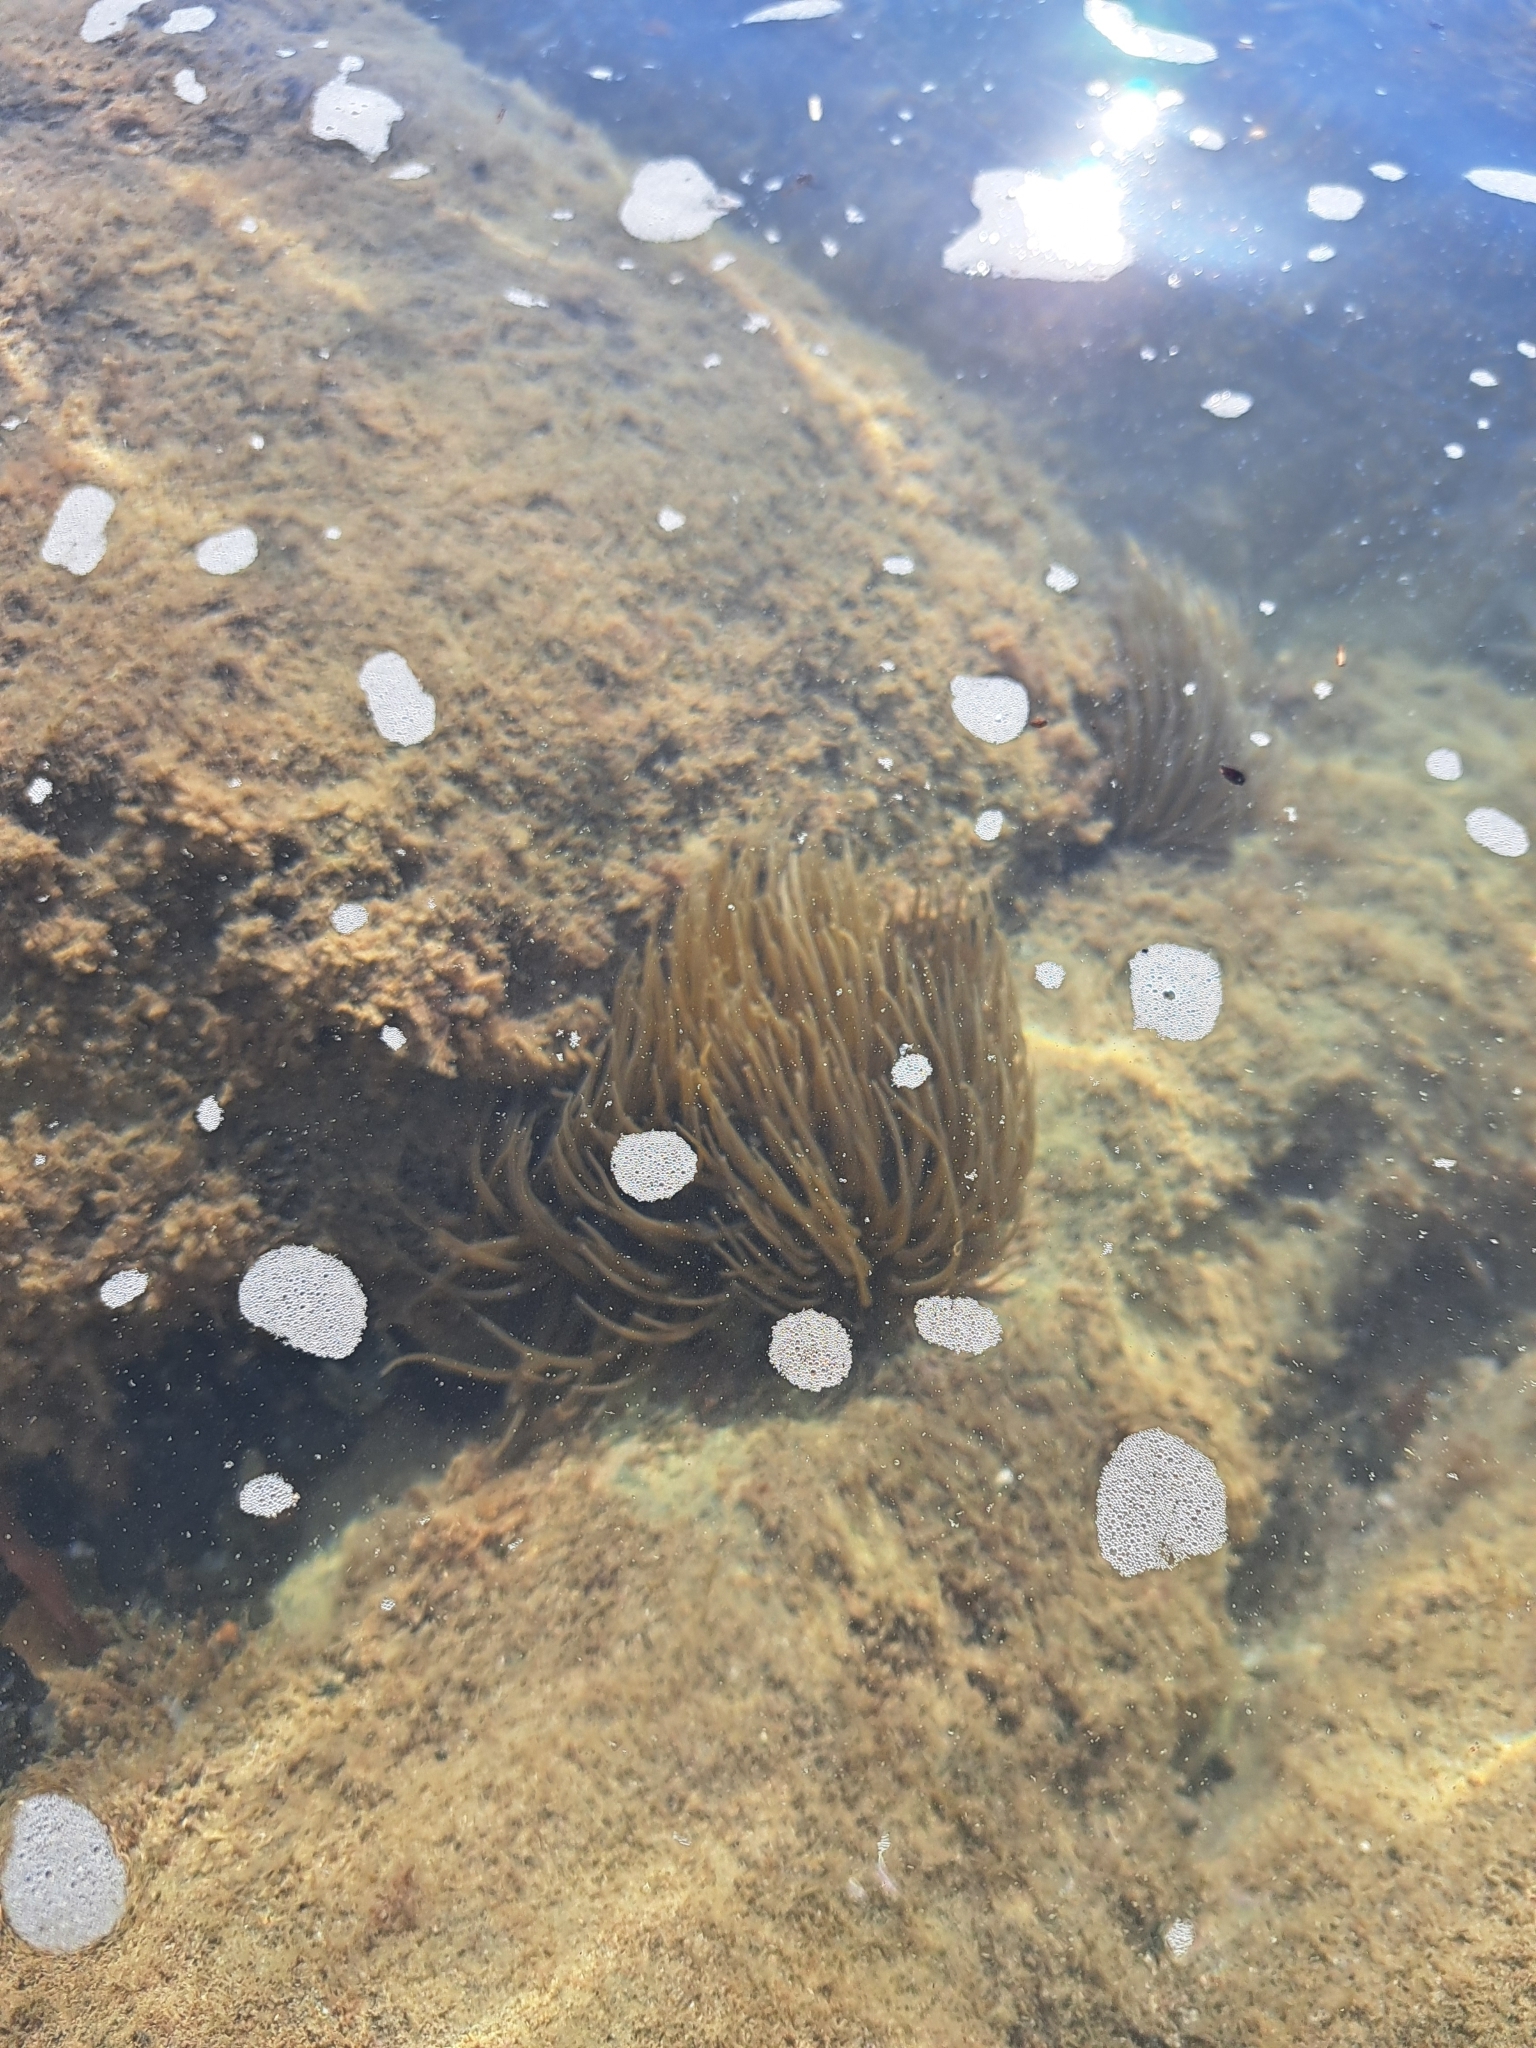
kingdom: Animalia
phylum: Cnidaria
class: Anthozoa
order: Actiniaria
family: Actiniidae
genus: Anemonia
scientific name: Anemonia viridis
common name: Snakelocks anemone
